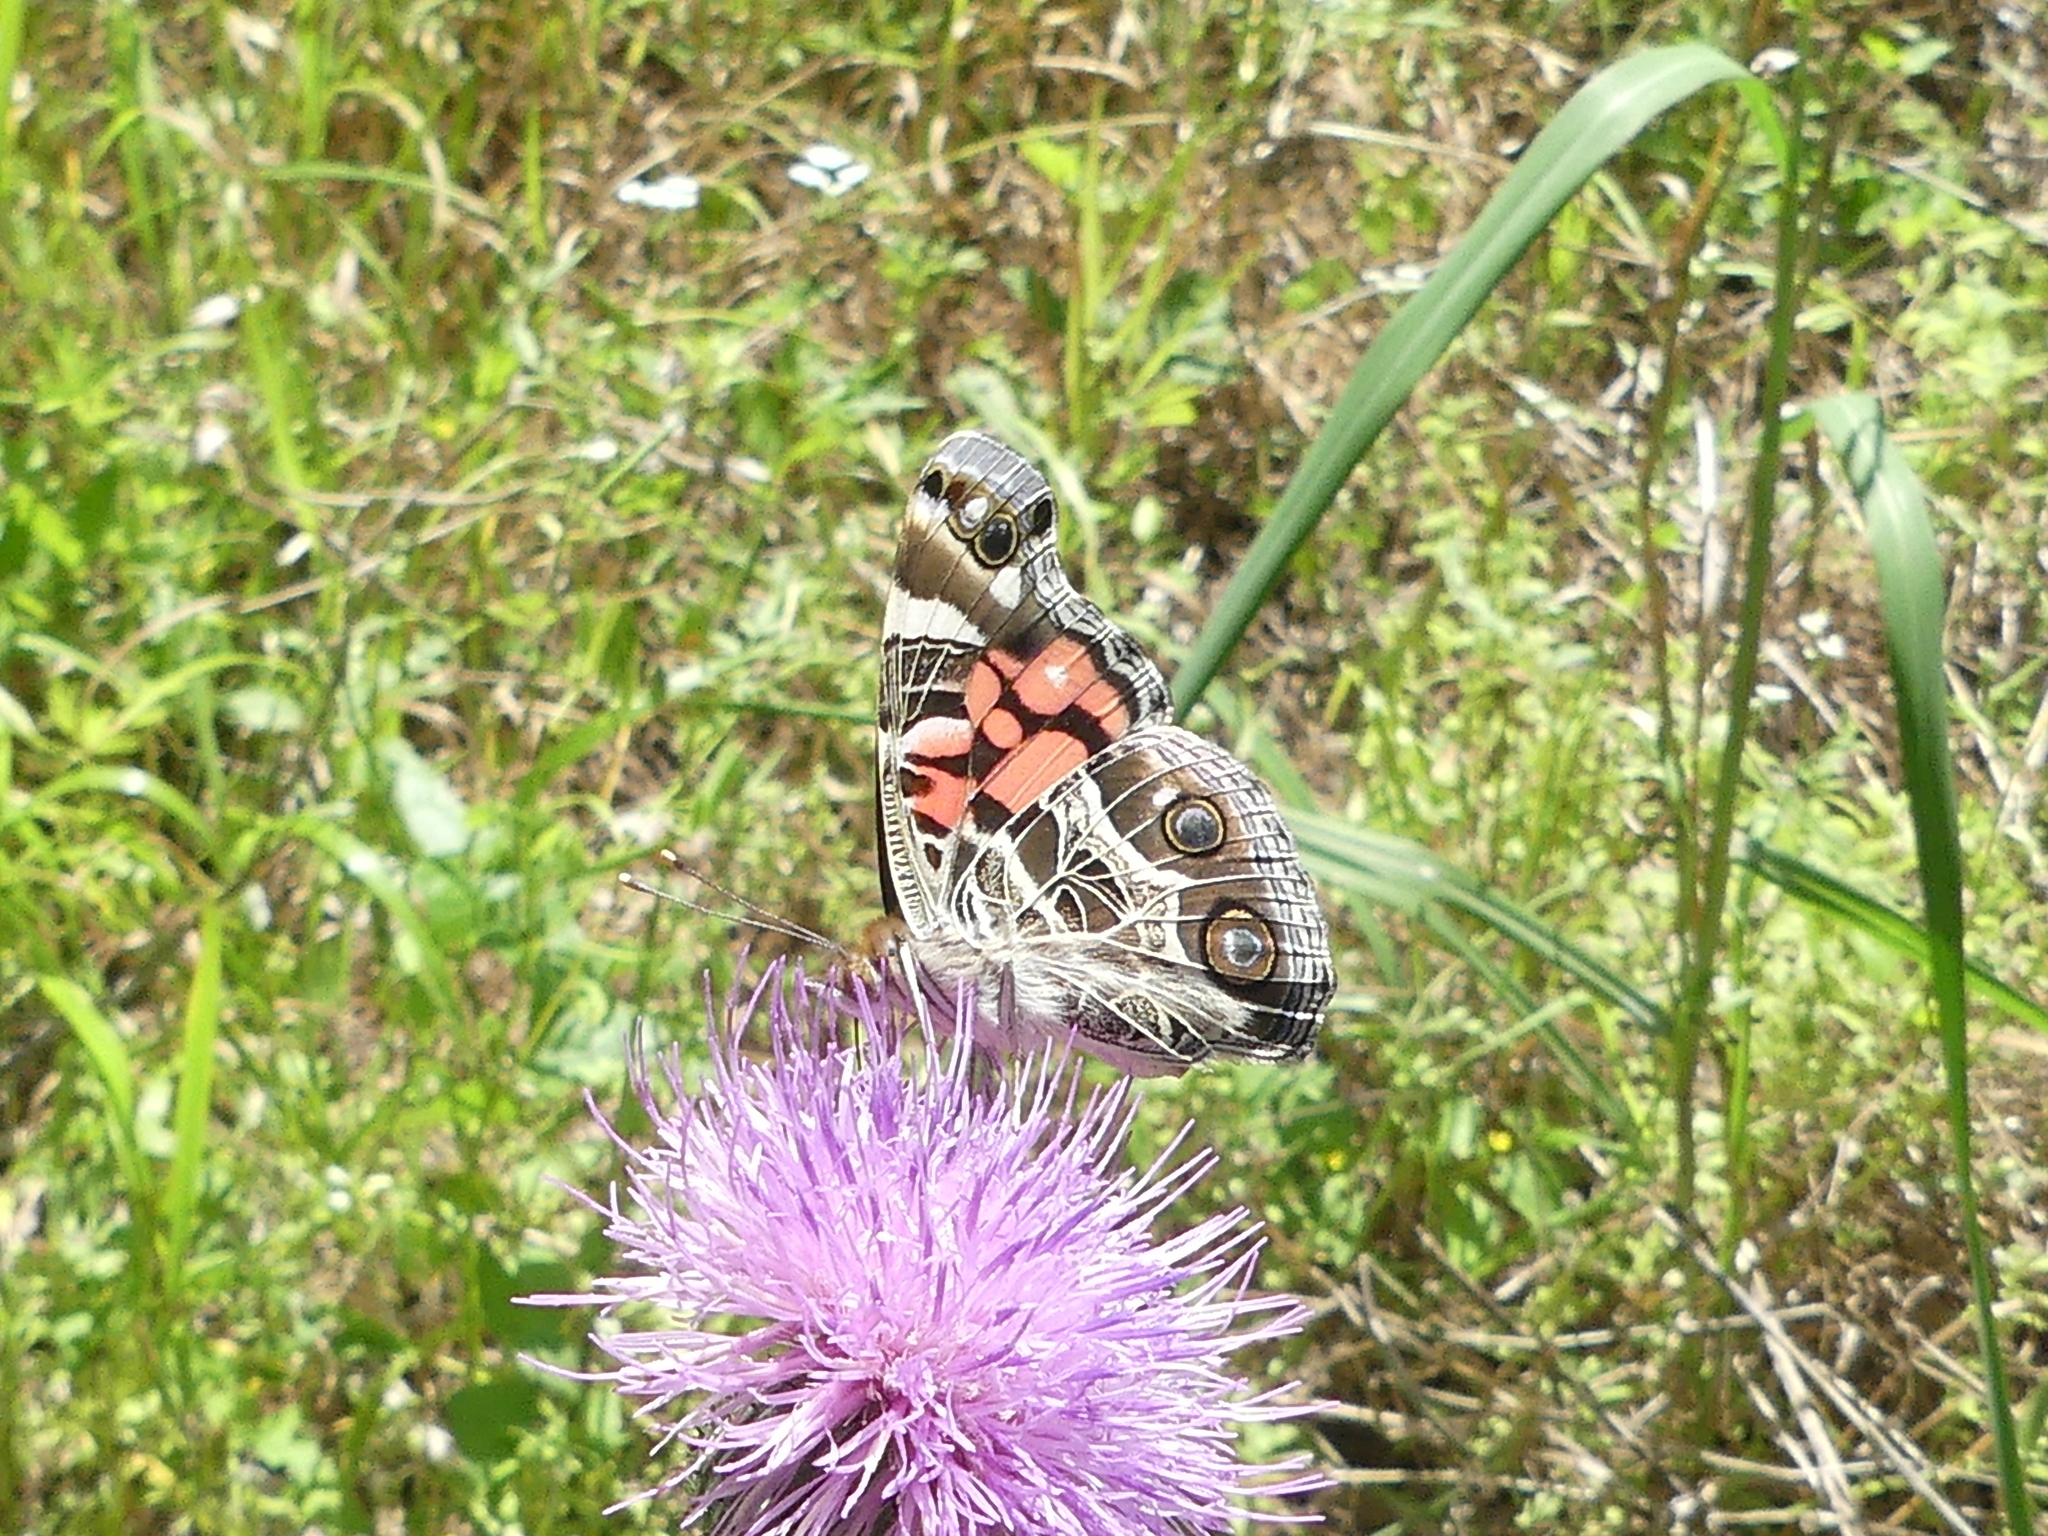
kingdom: Animalia
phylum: Arthropoda
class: Insecta
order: Lepidoptera
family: Nymphalidae
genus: Vanessa
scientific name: Vanessa virginiensis
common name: American lady
